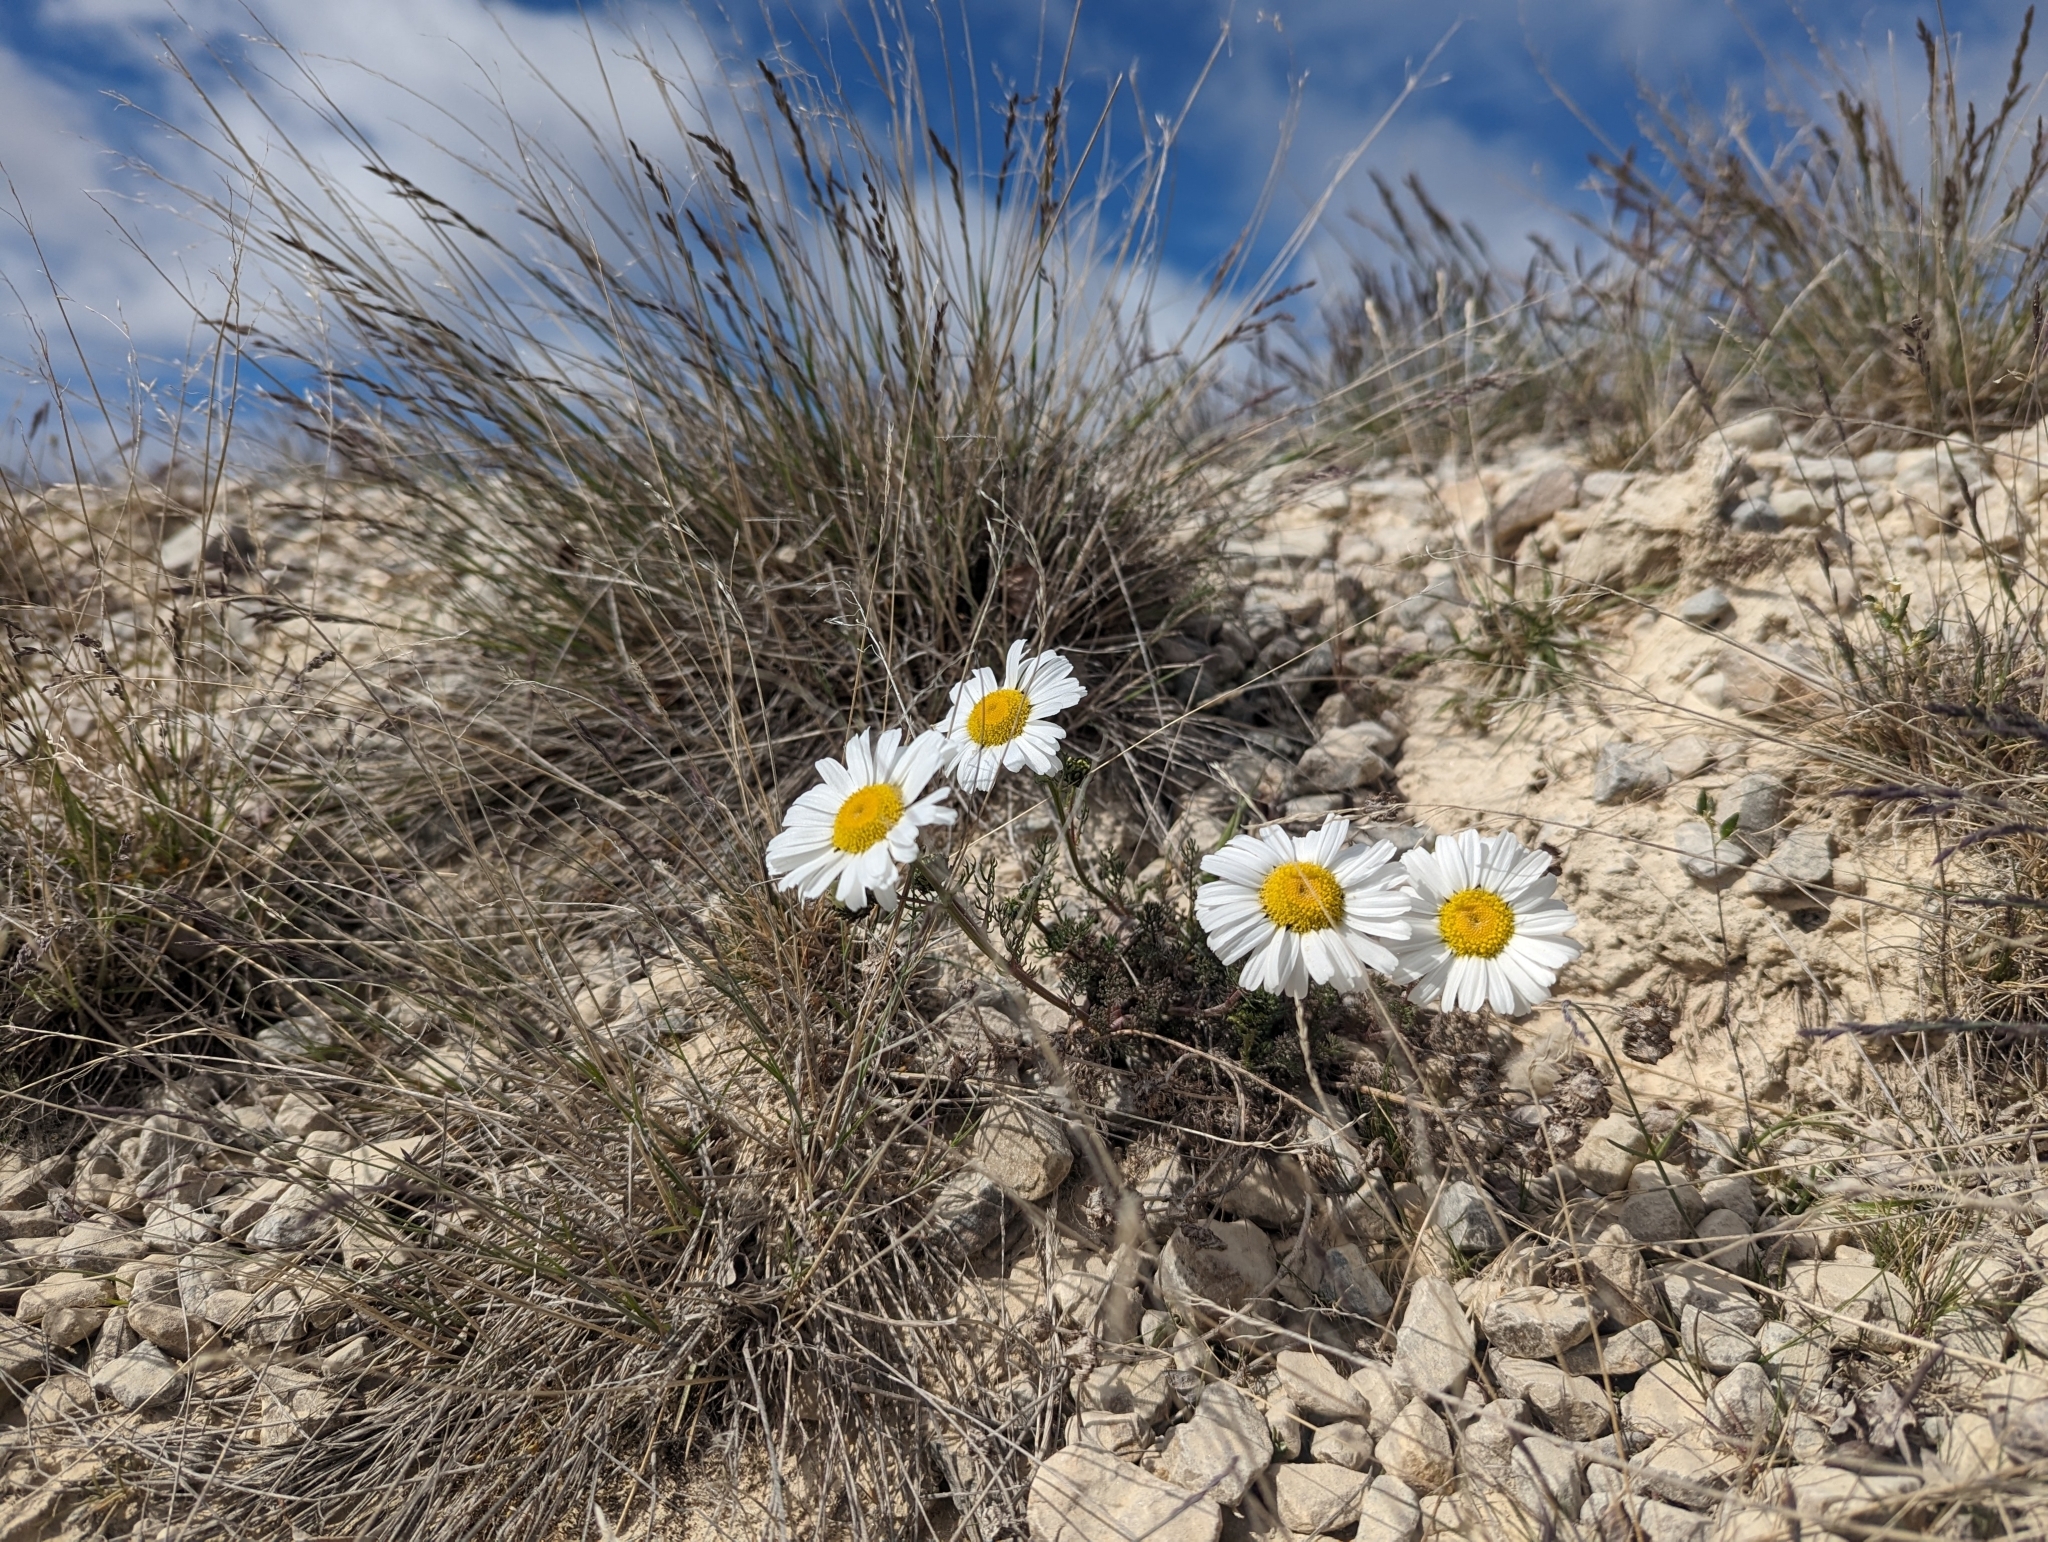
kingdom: Plantae
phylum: Tracheophyta
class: Magnoliopsida
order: Asterales
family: Asteraceae
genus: Tripleurospermum
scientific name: Tripleurospermum hookeri
